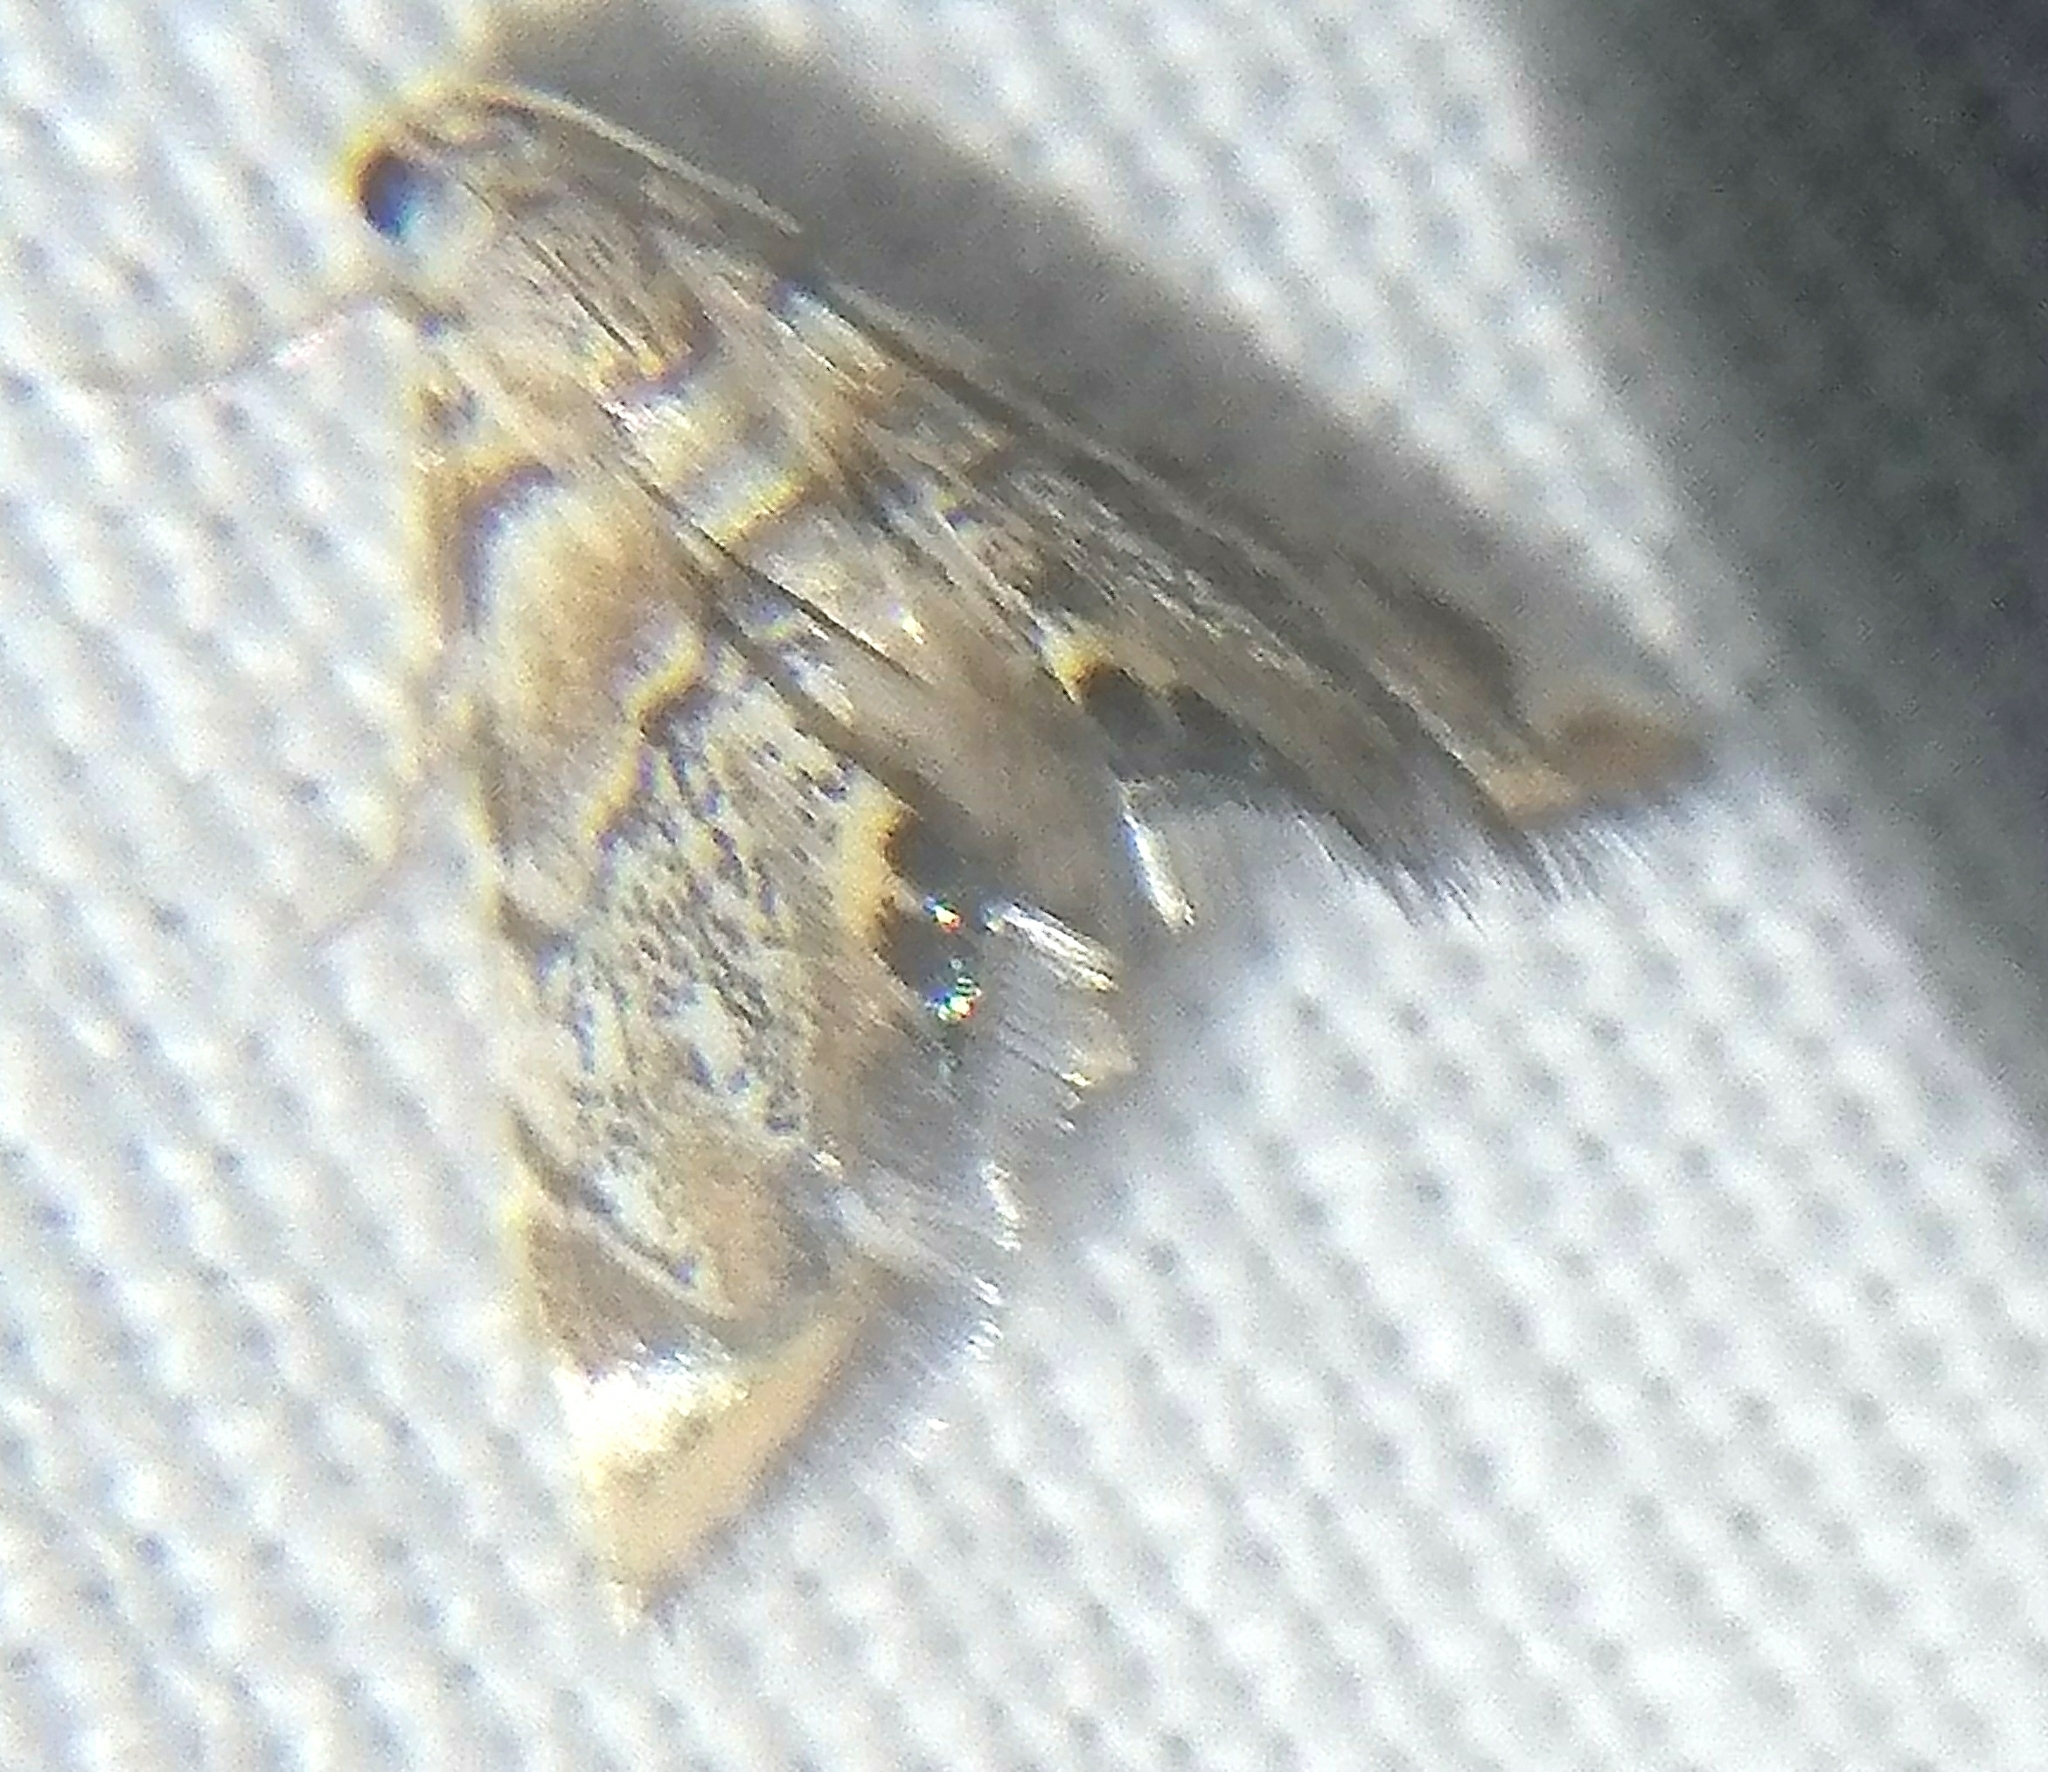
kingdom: Animalia
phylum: Arthropoda
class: Insecta
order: Lepidoptera
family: Crambidae
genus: Eoparargyractis
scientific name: Eoparargyractis irroratalis
